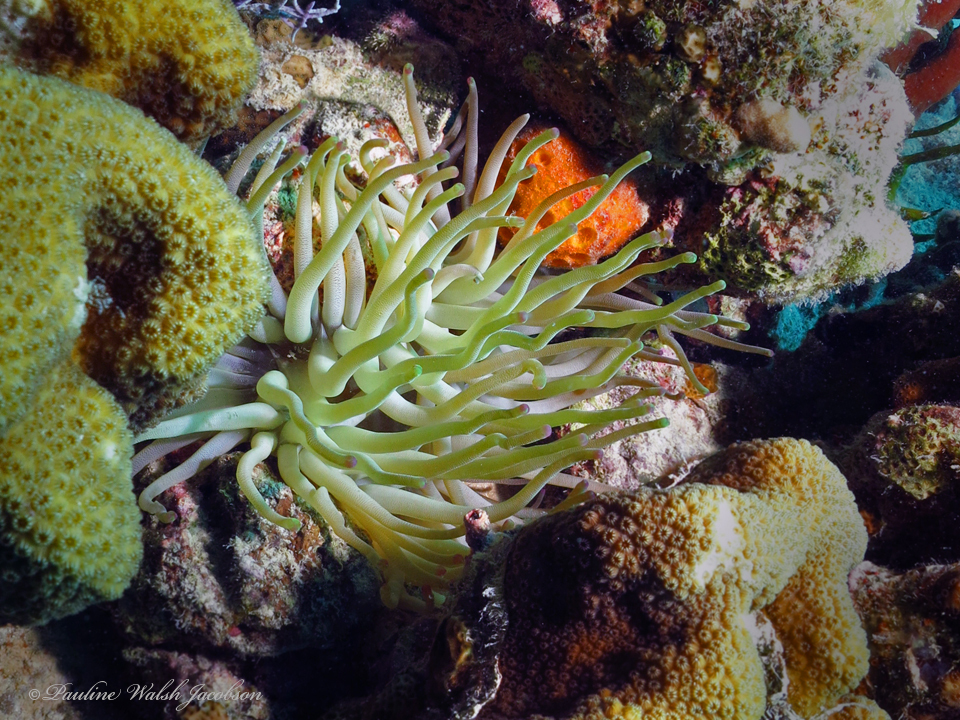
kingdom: Animalia
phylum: Cnidaria
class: Anthozoa
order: Actiniaria
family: Actiniidae
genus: Condylactis
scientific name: Condylactis gigantea
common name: Giant caribbean anemone
